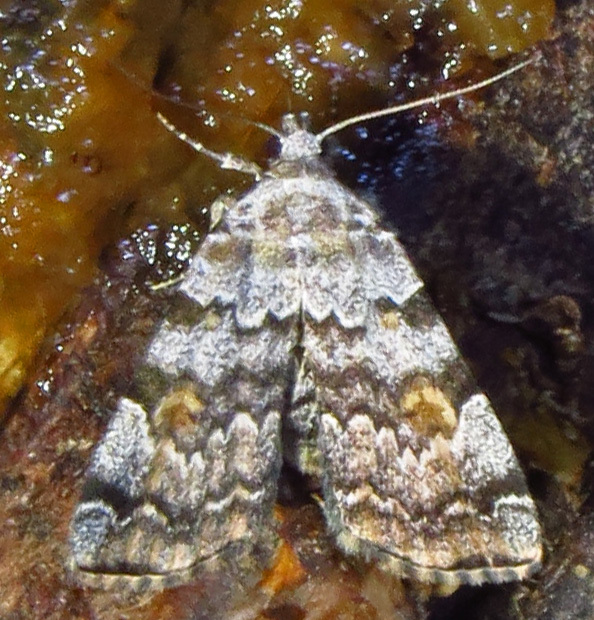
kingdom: Animalia
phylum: Arthropoda
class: Insecta
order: Lepidoptera
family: Erebidae
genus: Idia
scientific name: Idia americalis
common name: American idia moth
